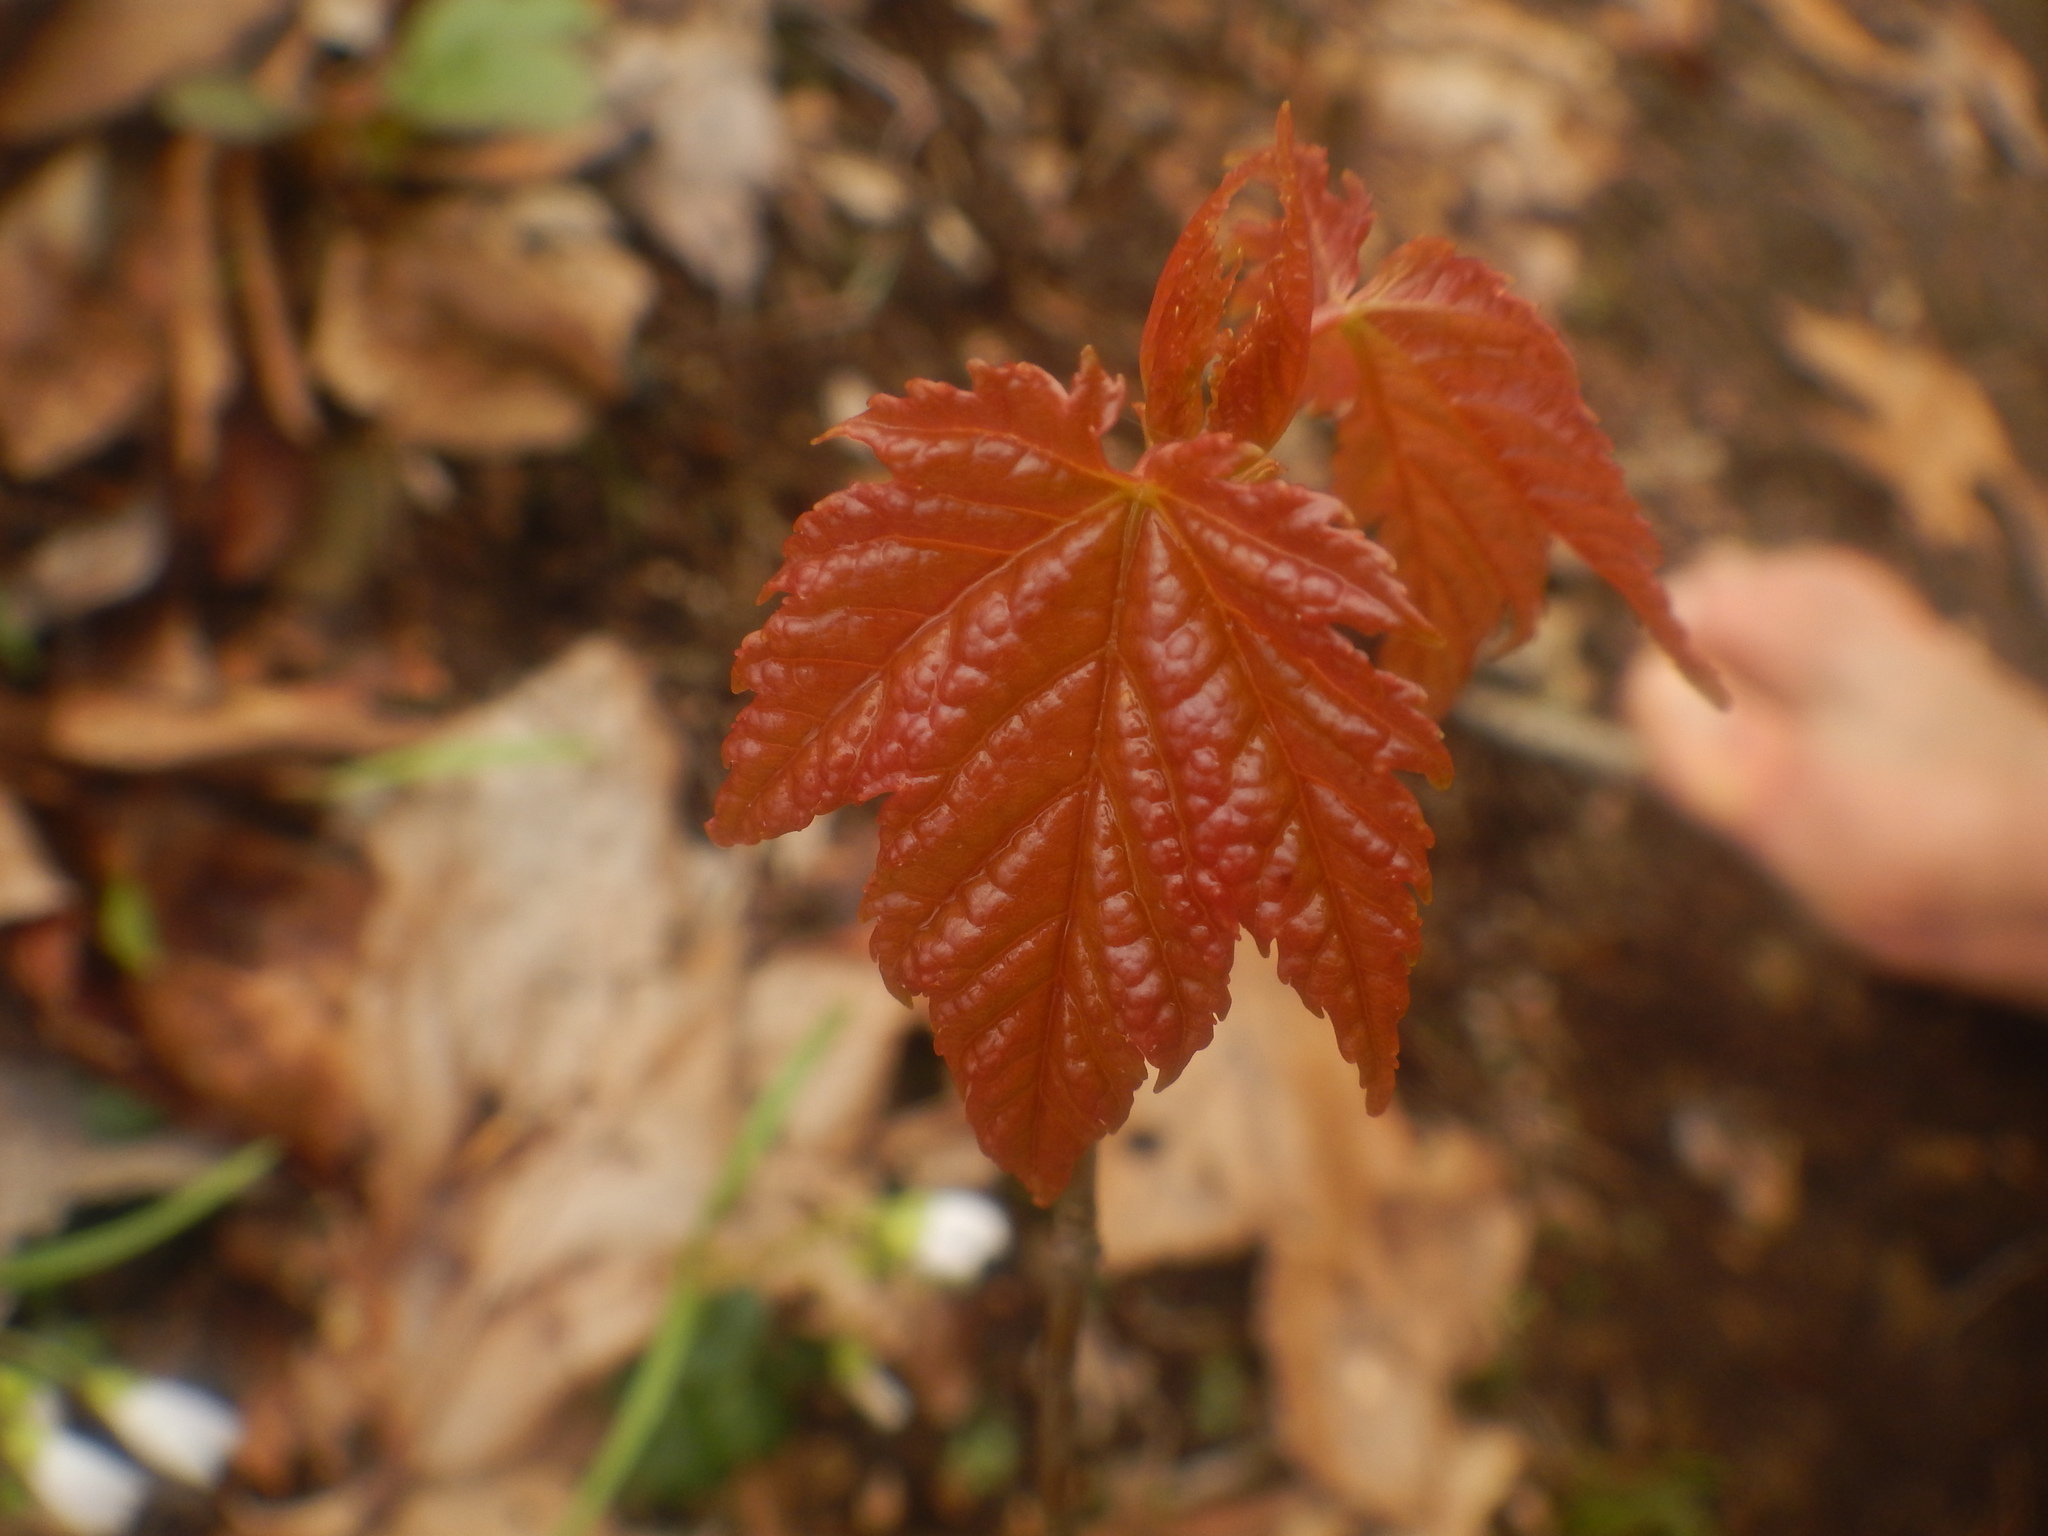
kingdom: Plantae
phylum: Tracheophyta
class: Magnoliopsida
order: Dipsacales
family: Viburnaceae
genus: Viburnum
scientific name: Viburnum acerifolium
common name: Dockmackie
